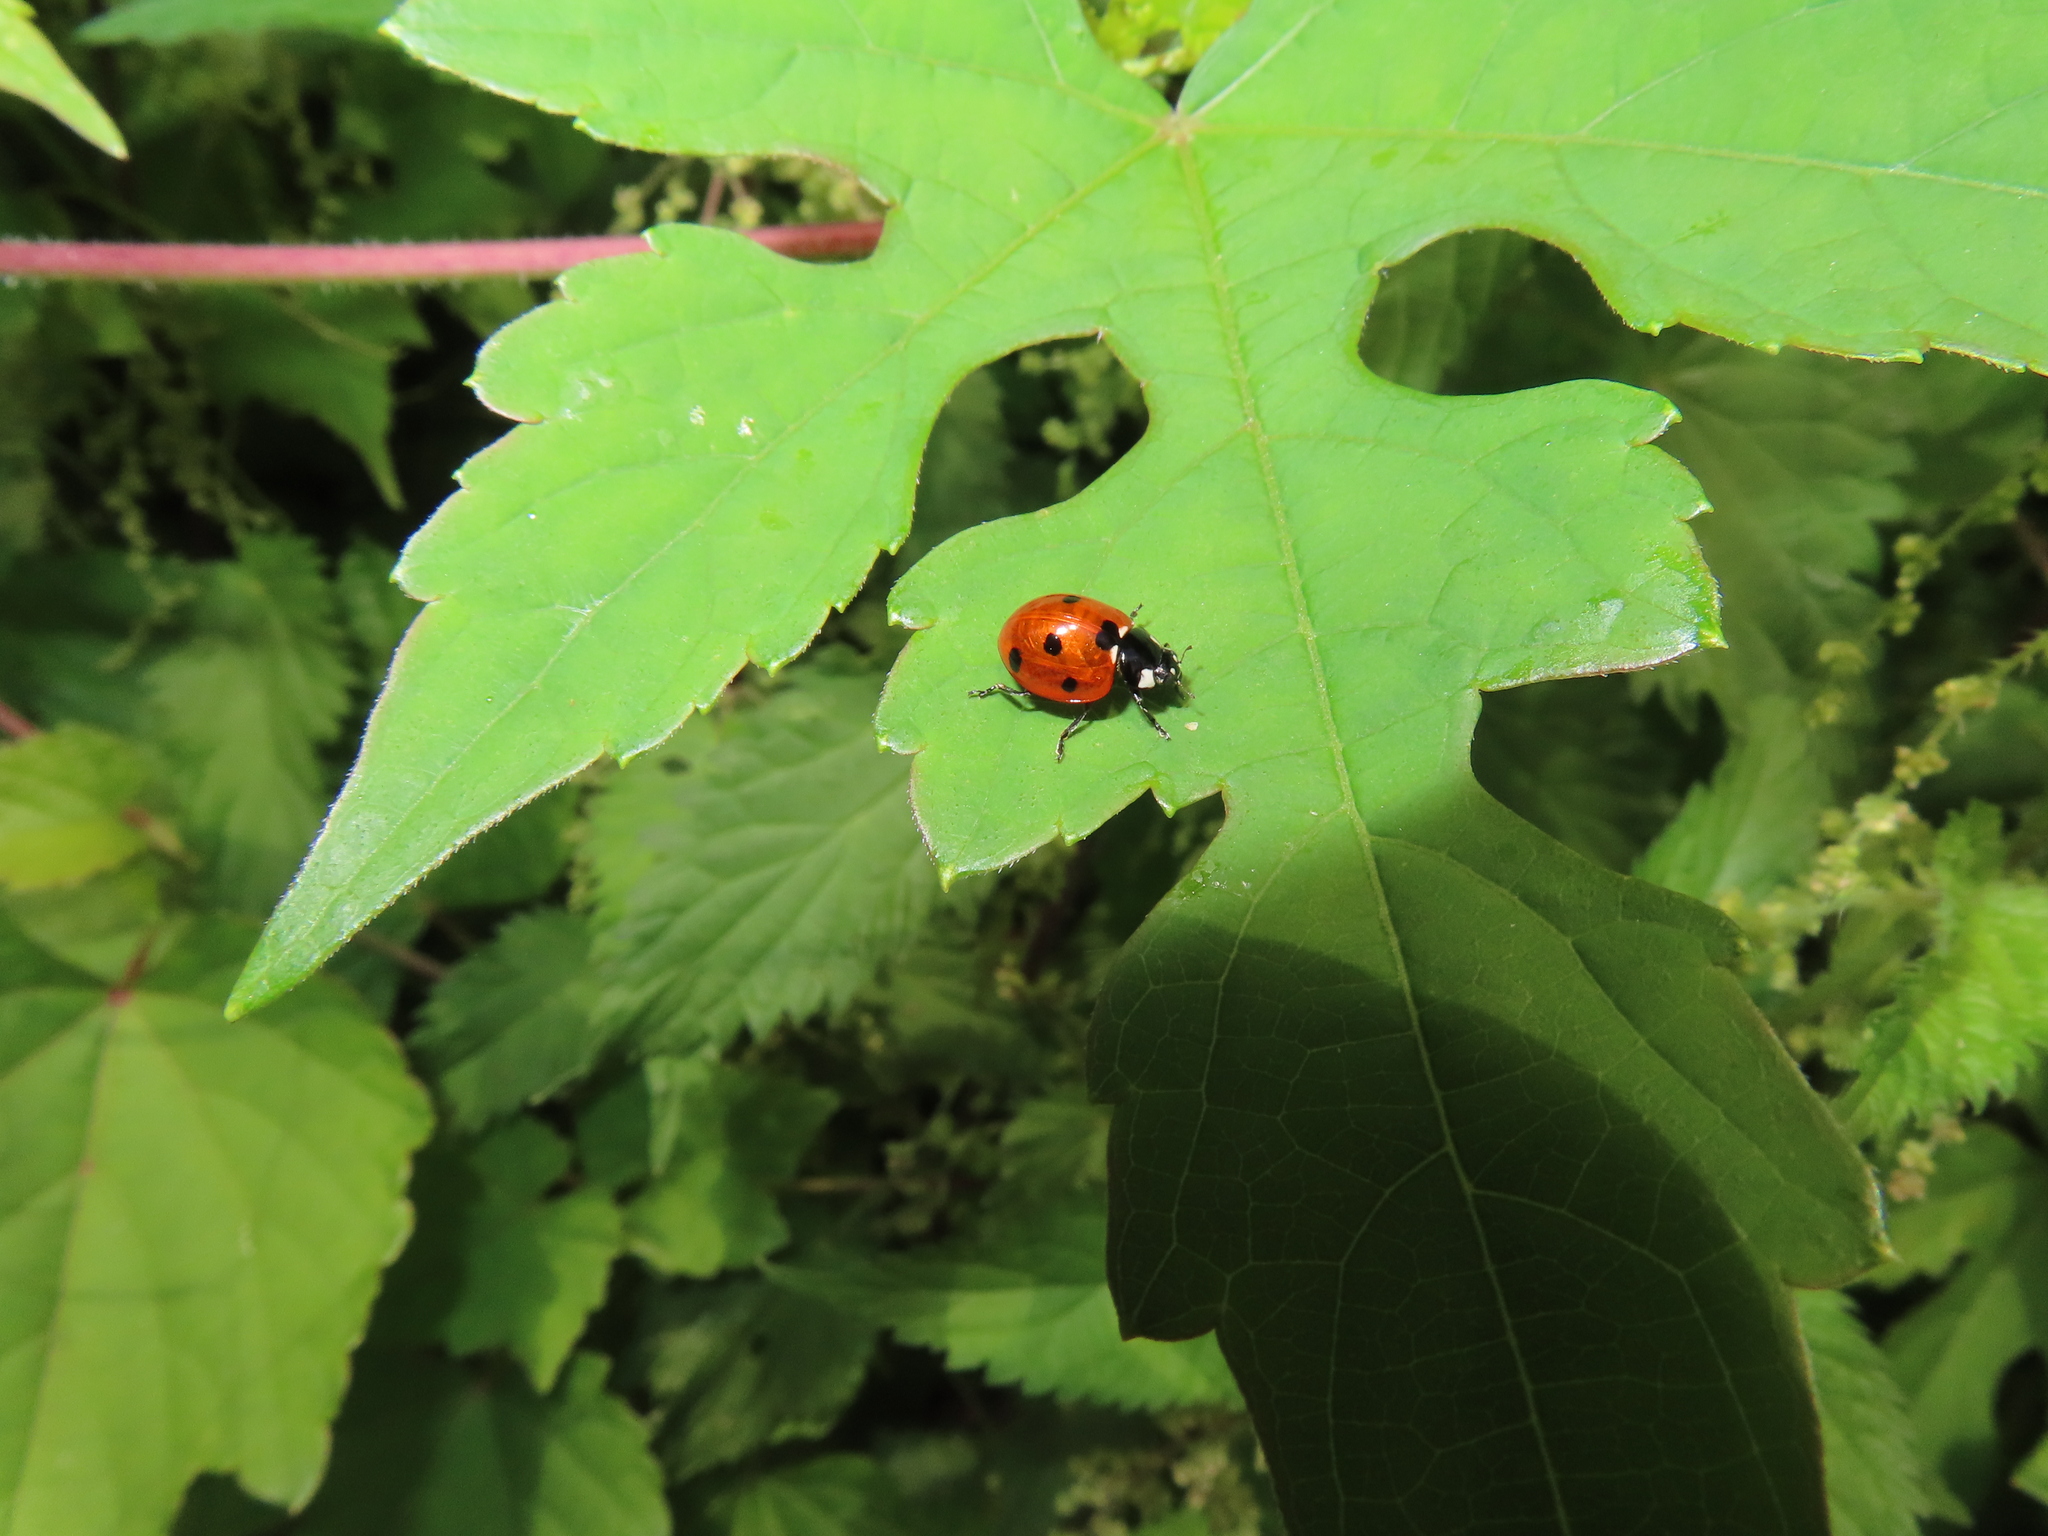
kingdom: Animalia
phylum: Arthropoda
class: Insecta
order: Coleoptera
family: Coccinellidae
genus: Coccinella
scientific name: Coccinella septempunctata
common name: Sevenspotted lady beetle
